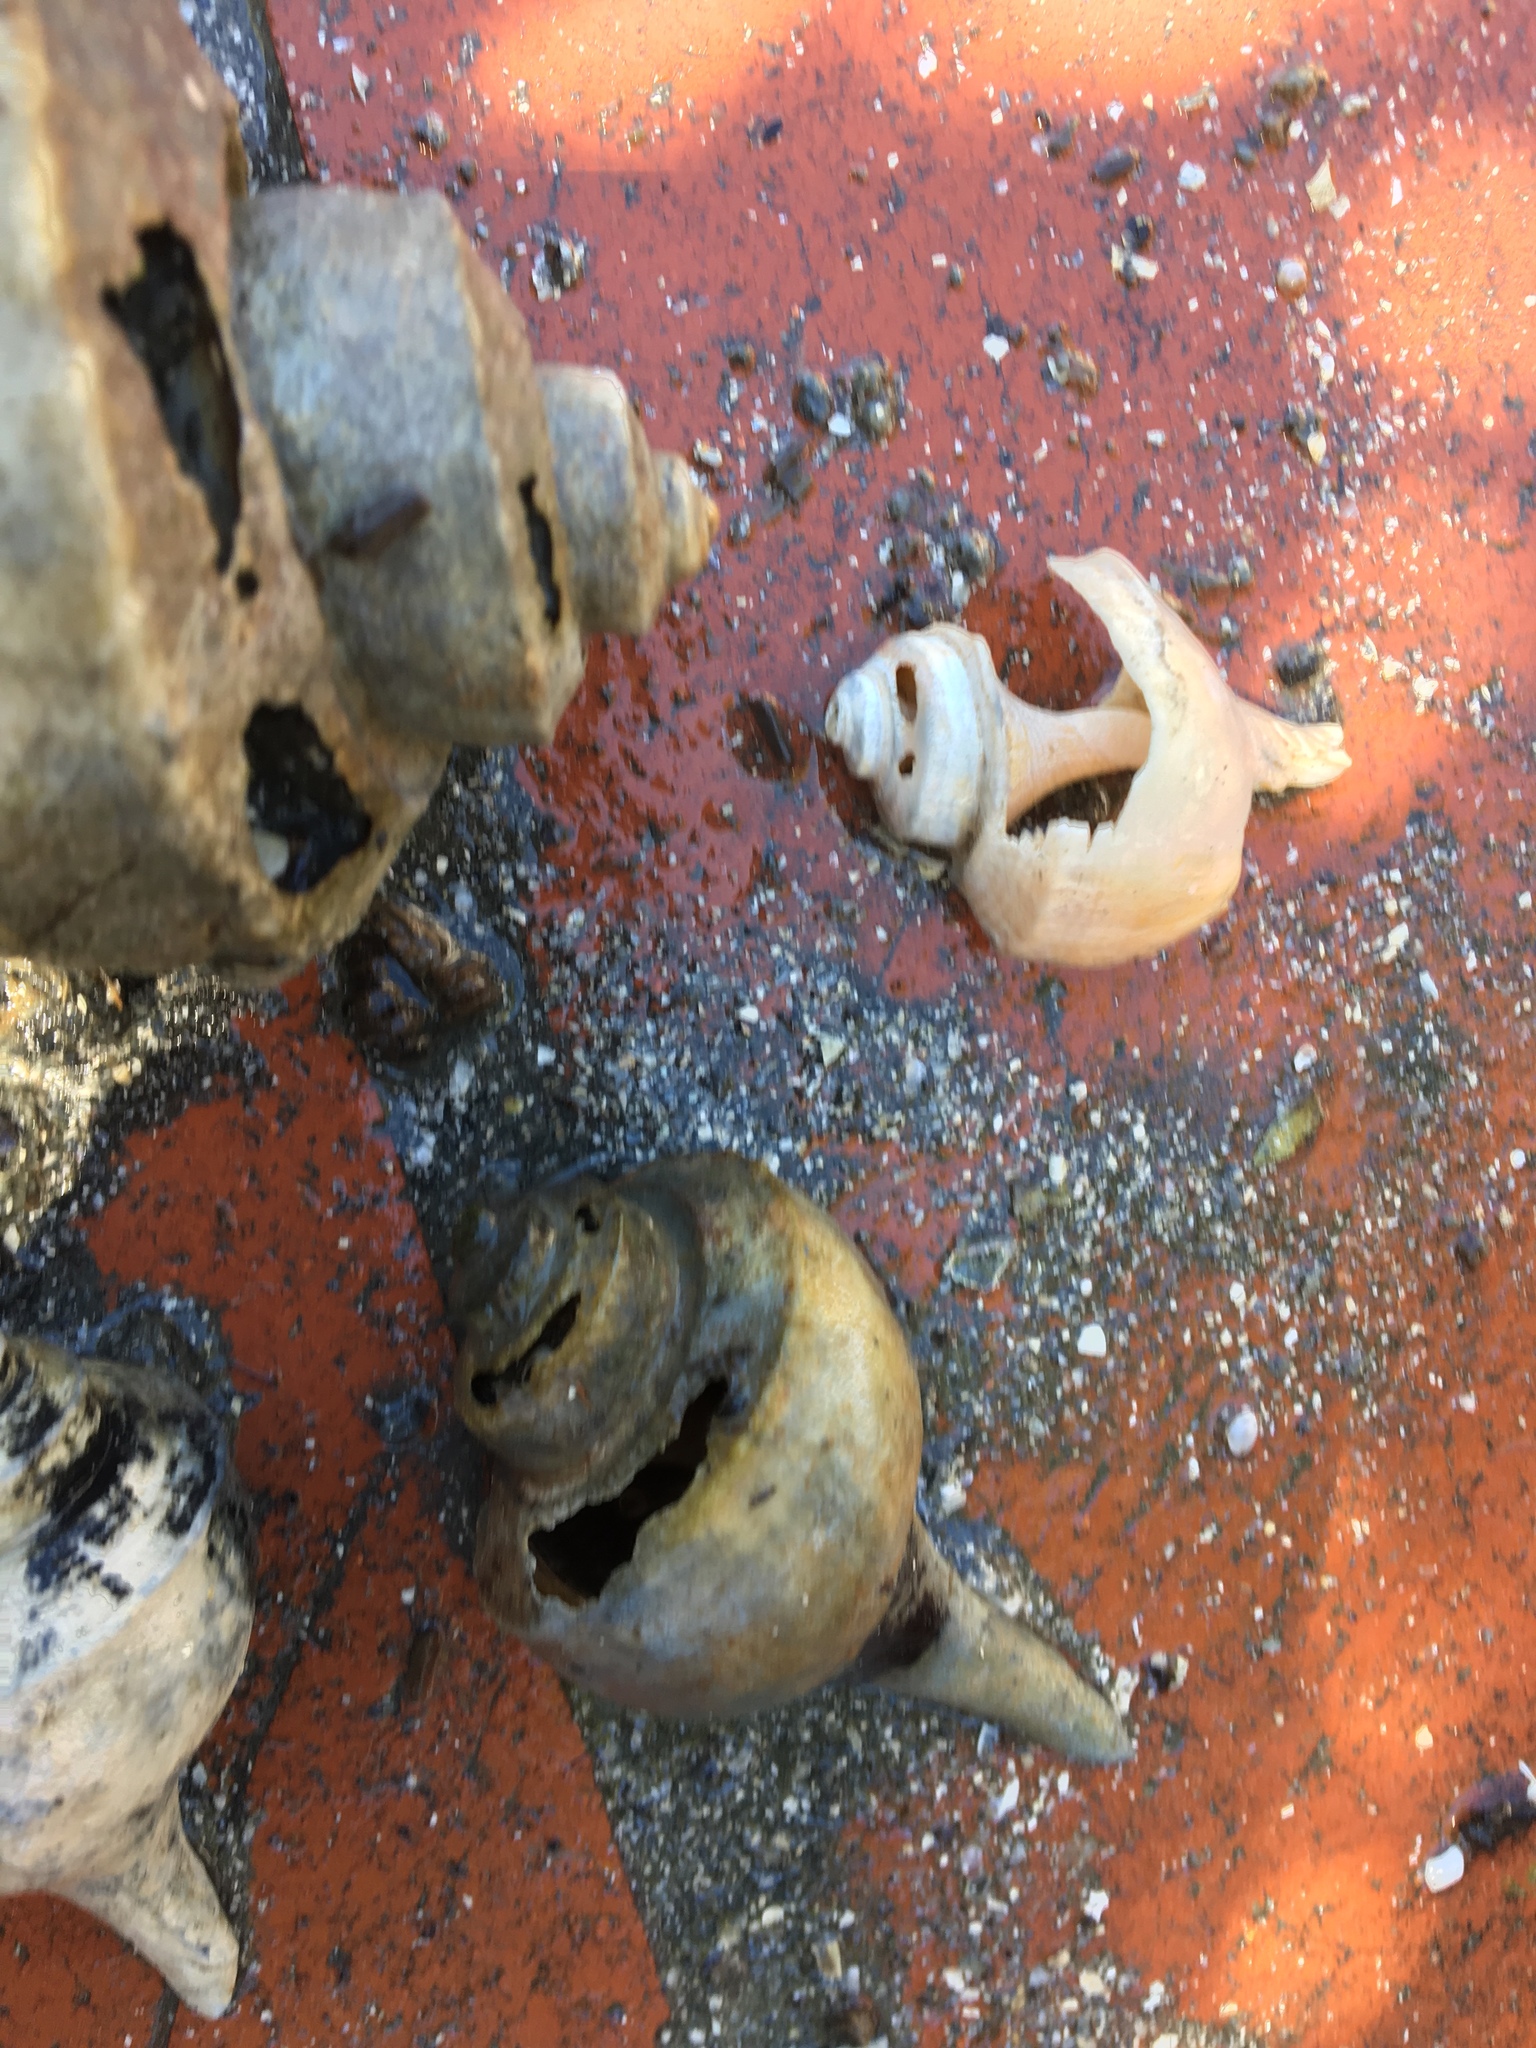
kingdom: Animalia
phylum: Mollusca
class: Gastropoda
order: Neogastropoda
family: Busyconidae
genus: Busycotypus
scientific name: Busycotypus canaliculatus
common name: Channeled whelk
